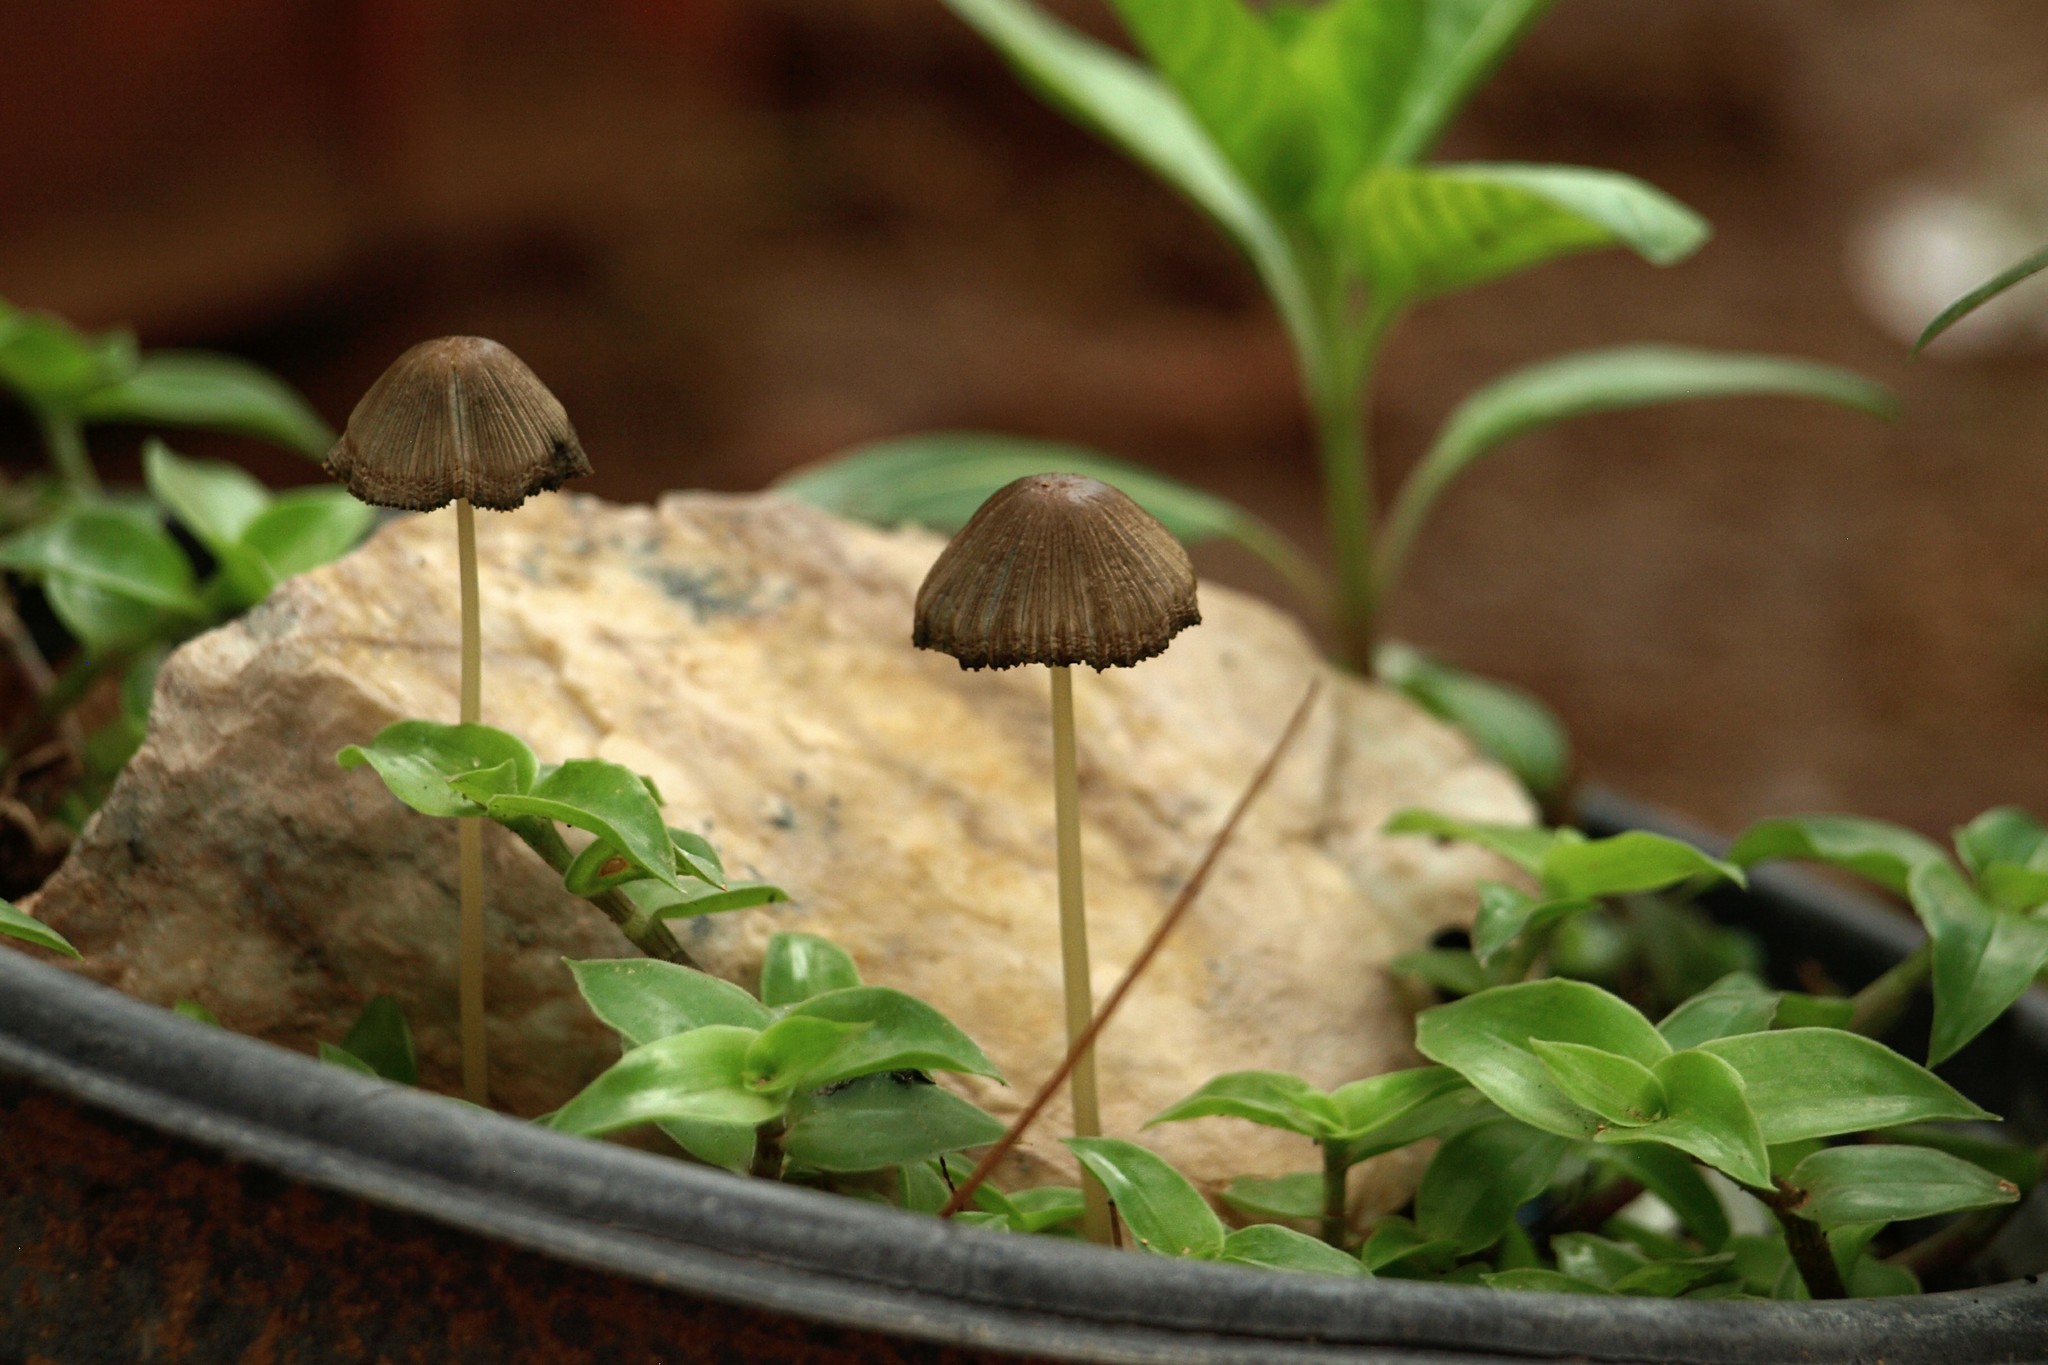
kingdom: Fungi
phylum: Basidiomycota
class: Agaricomycetes
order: Agaricales
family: Psathyrellaceae
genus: Parasola
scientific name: Parasola auricoma
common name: Goldenhaired inkcap
